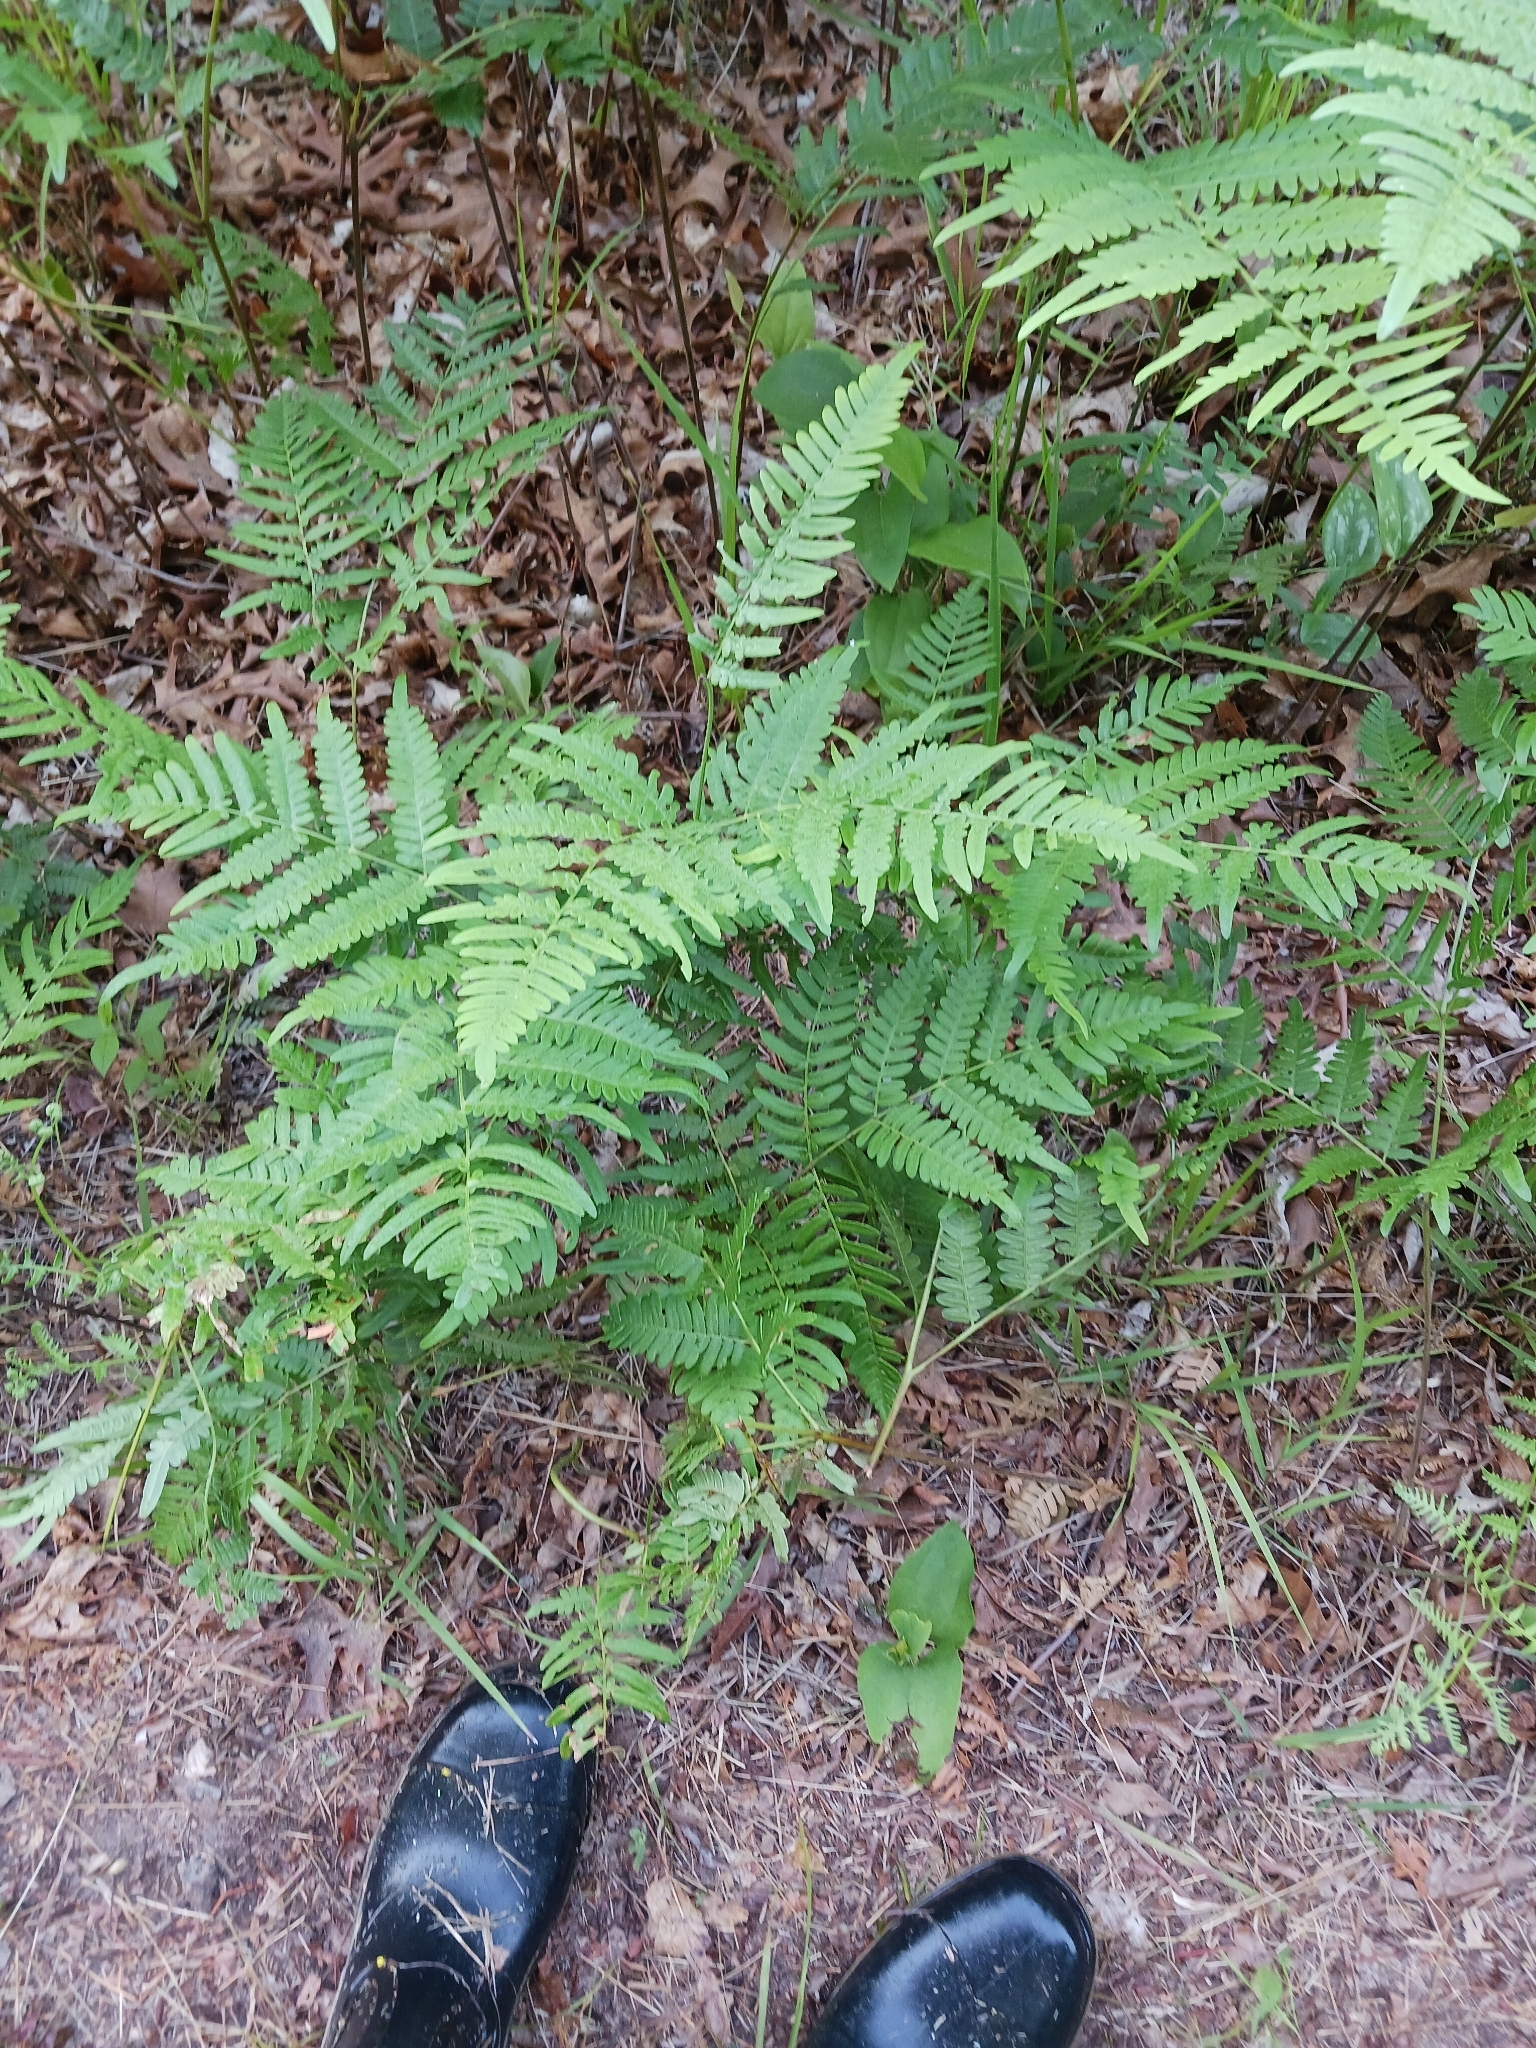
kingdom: Plantae
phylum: Tracheophyta
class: Polypodiopsida
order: Polypodiales
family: Dennstaedtiaceae
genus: Pteridium
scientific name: Pteridium aquilinum
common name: Bracken
